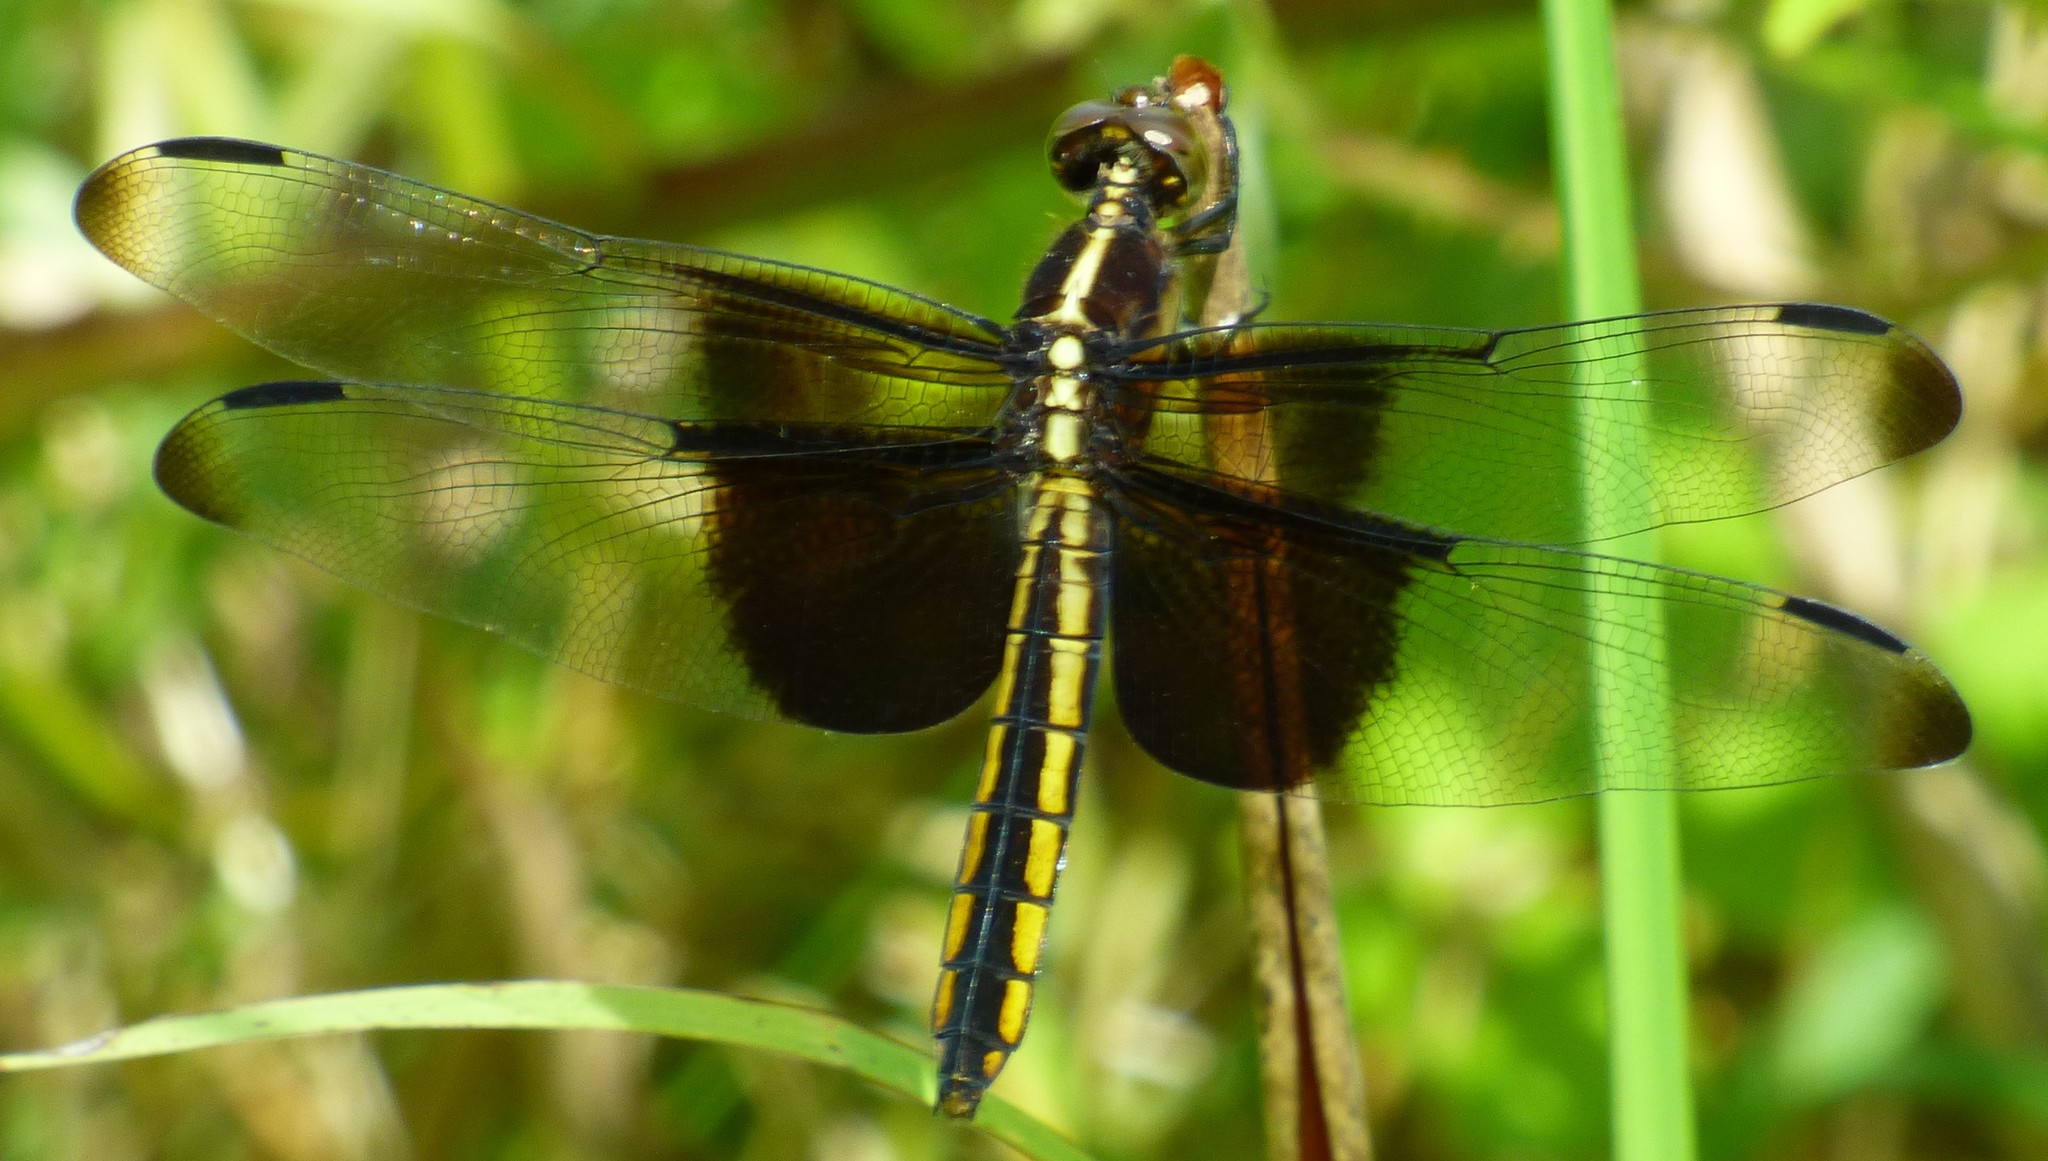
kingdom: Animalia
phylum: Arthropoda
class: Insecta
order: Odonata
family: Libellulidae
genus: Libellula
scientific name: Libellula luctuosa
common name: Widow skimmer
